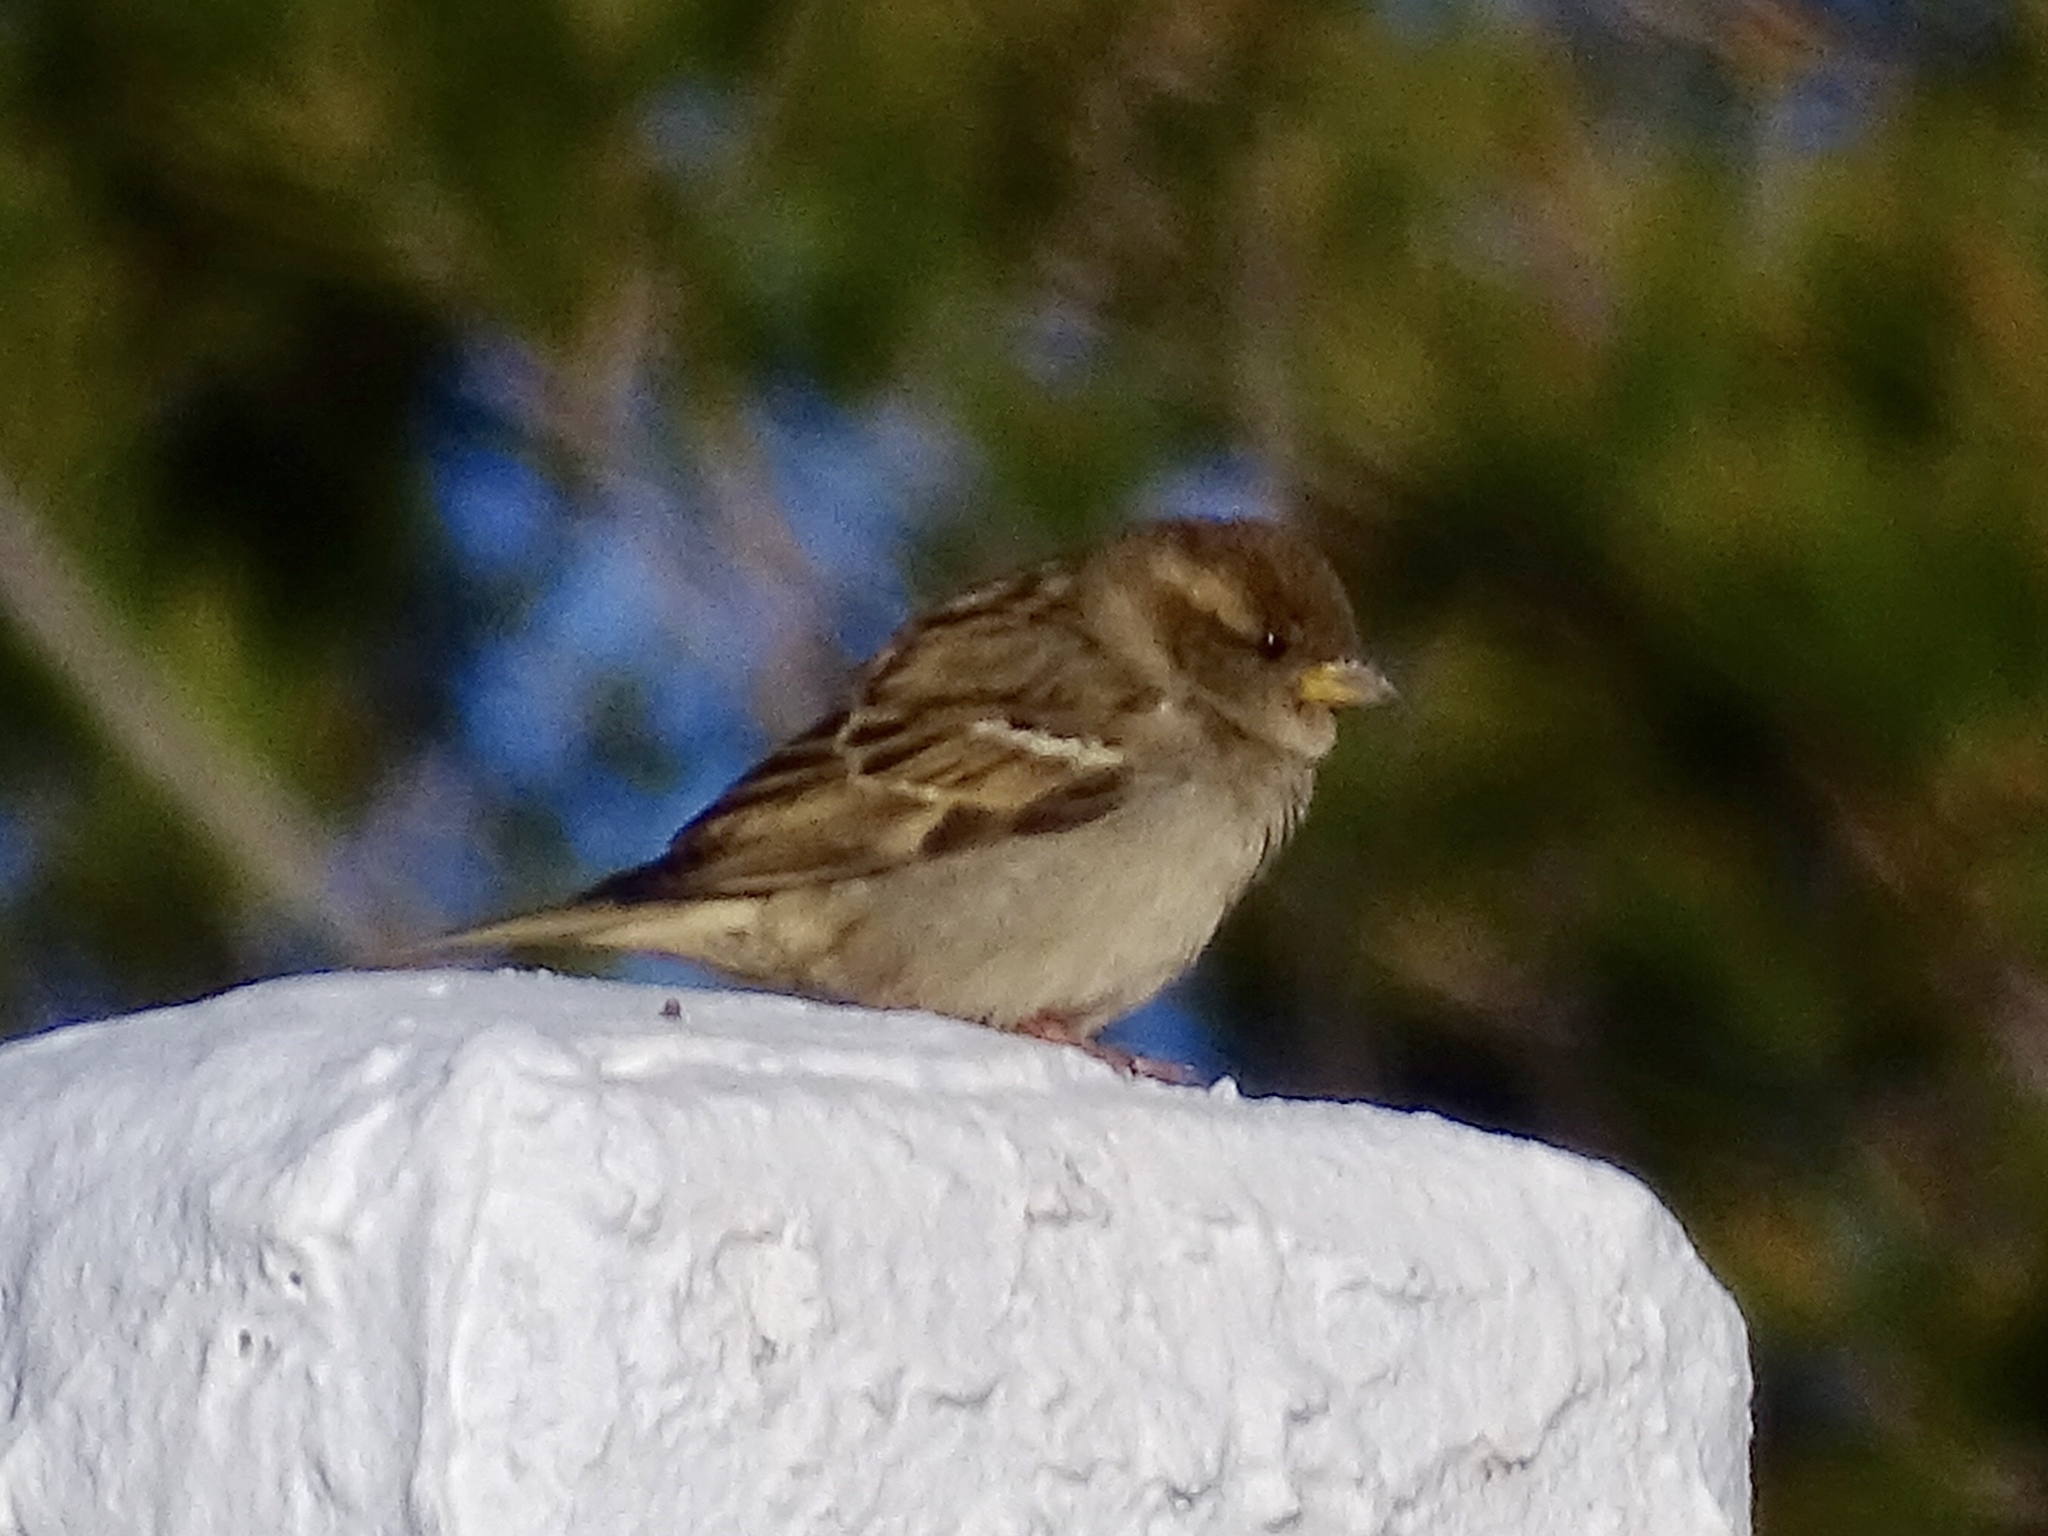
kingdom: Animalia
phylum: Chordata
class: Aves
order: Passeriformes
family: Passeridae
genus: Passer
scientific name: Passer domesticus
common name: House sparrow
